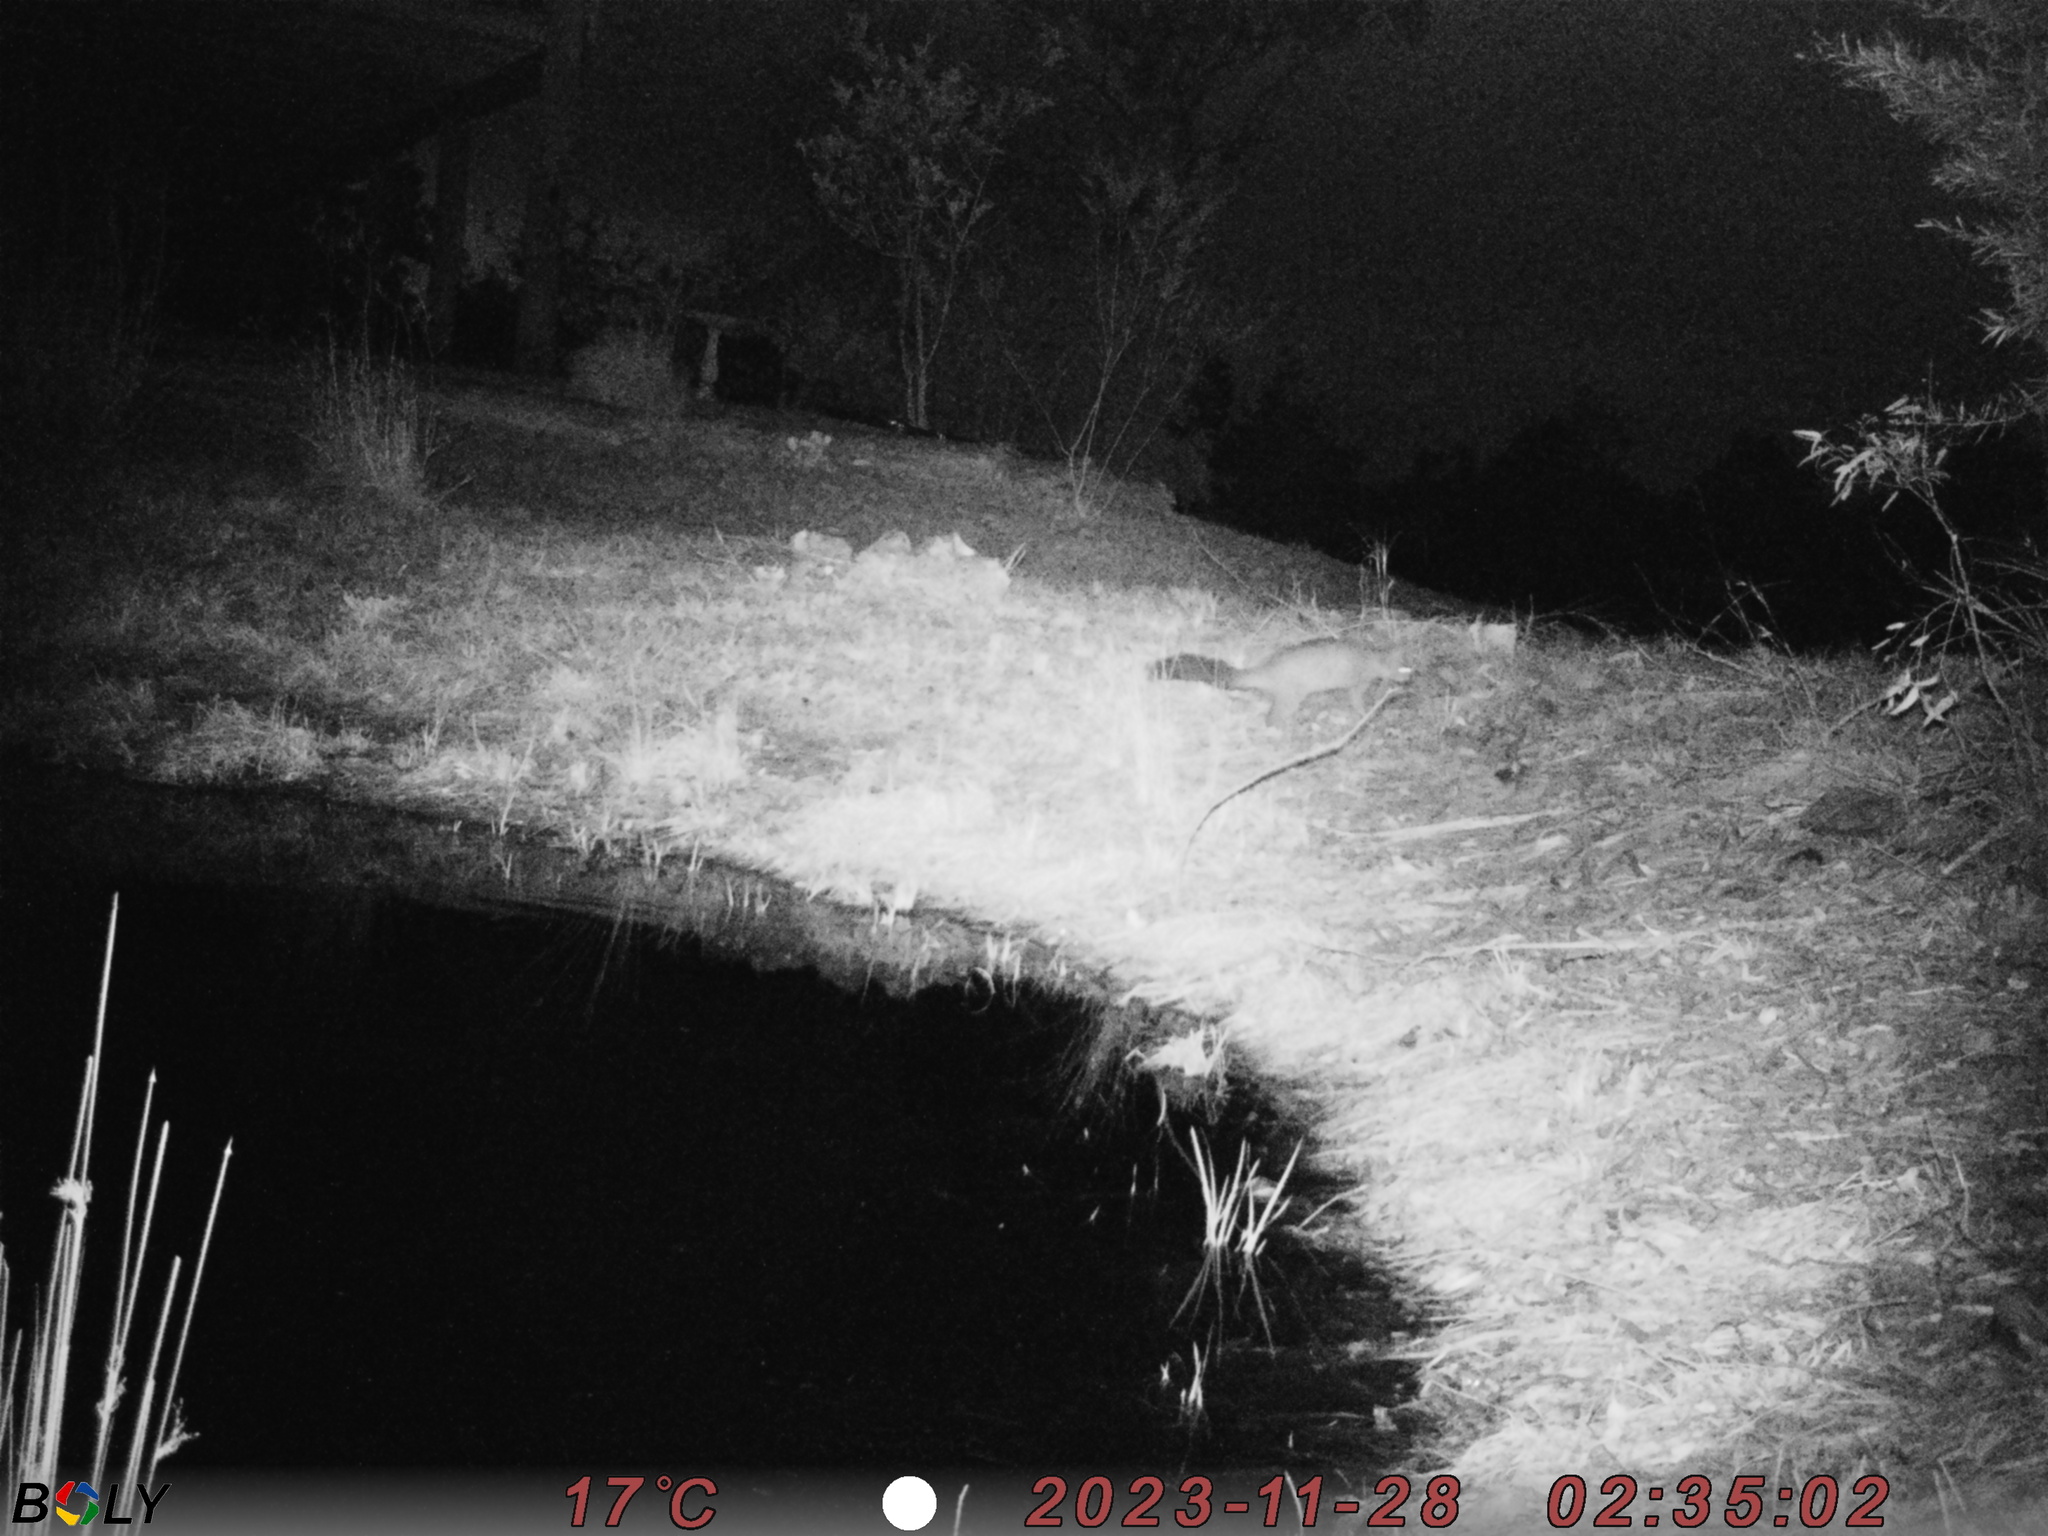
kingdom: Animalia
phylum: Chordata
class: Mammalia
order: Diprotodontia
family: Phalangeridae
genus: Trichosurus
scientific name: Trichosurus vulpecula
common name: Common brushtail
